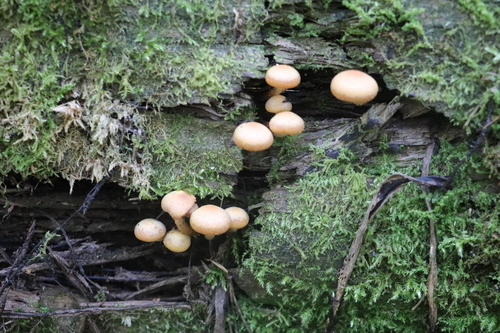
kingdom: Fungi
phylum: Basidiomycota
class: Agaricomycetes
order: Agaricales
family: Strophariaceae
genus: Kuehneromyces
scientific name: Kuehneromyces mutabilis
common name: Sheathed woodtuft
